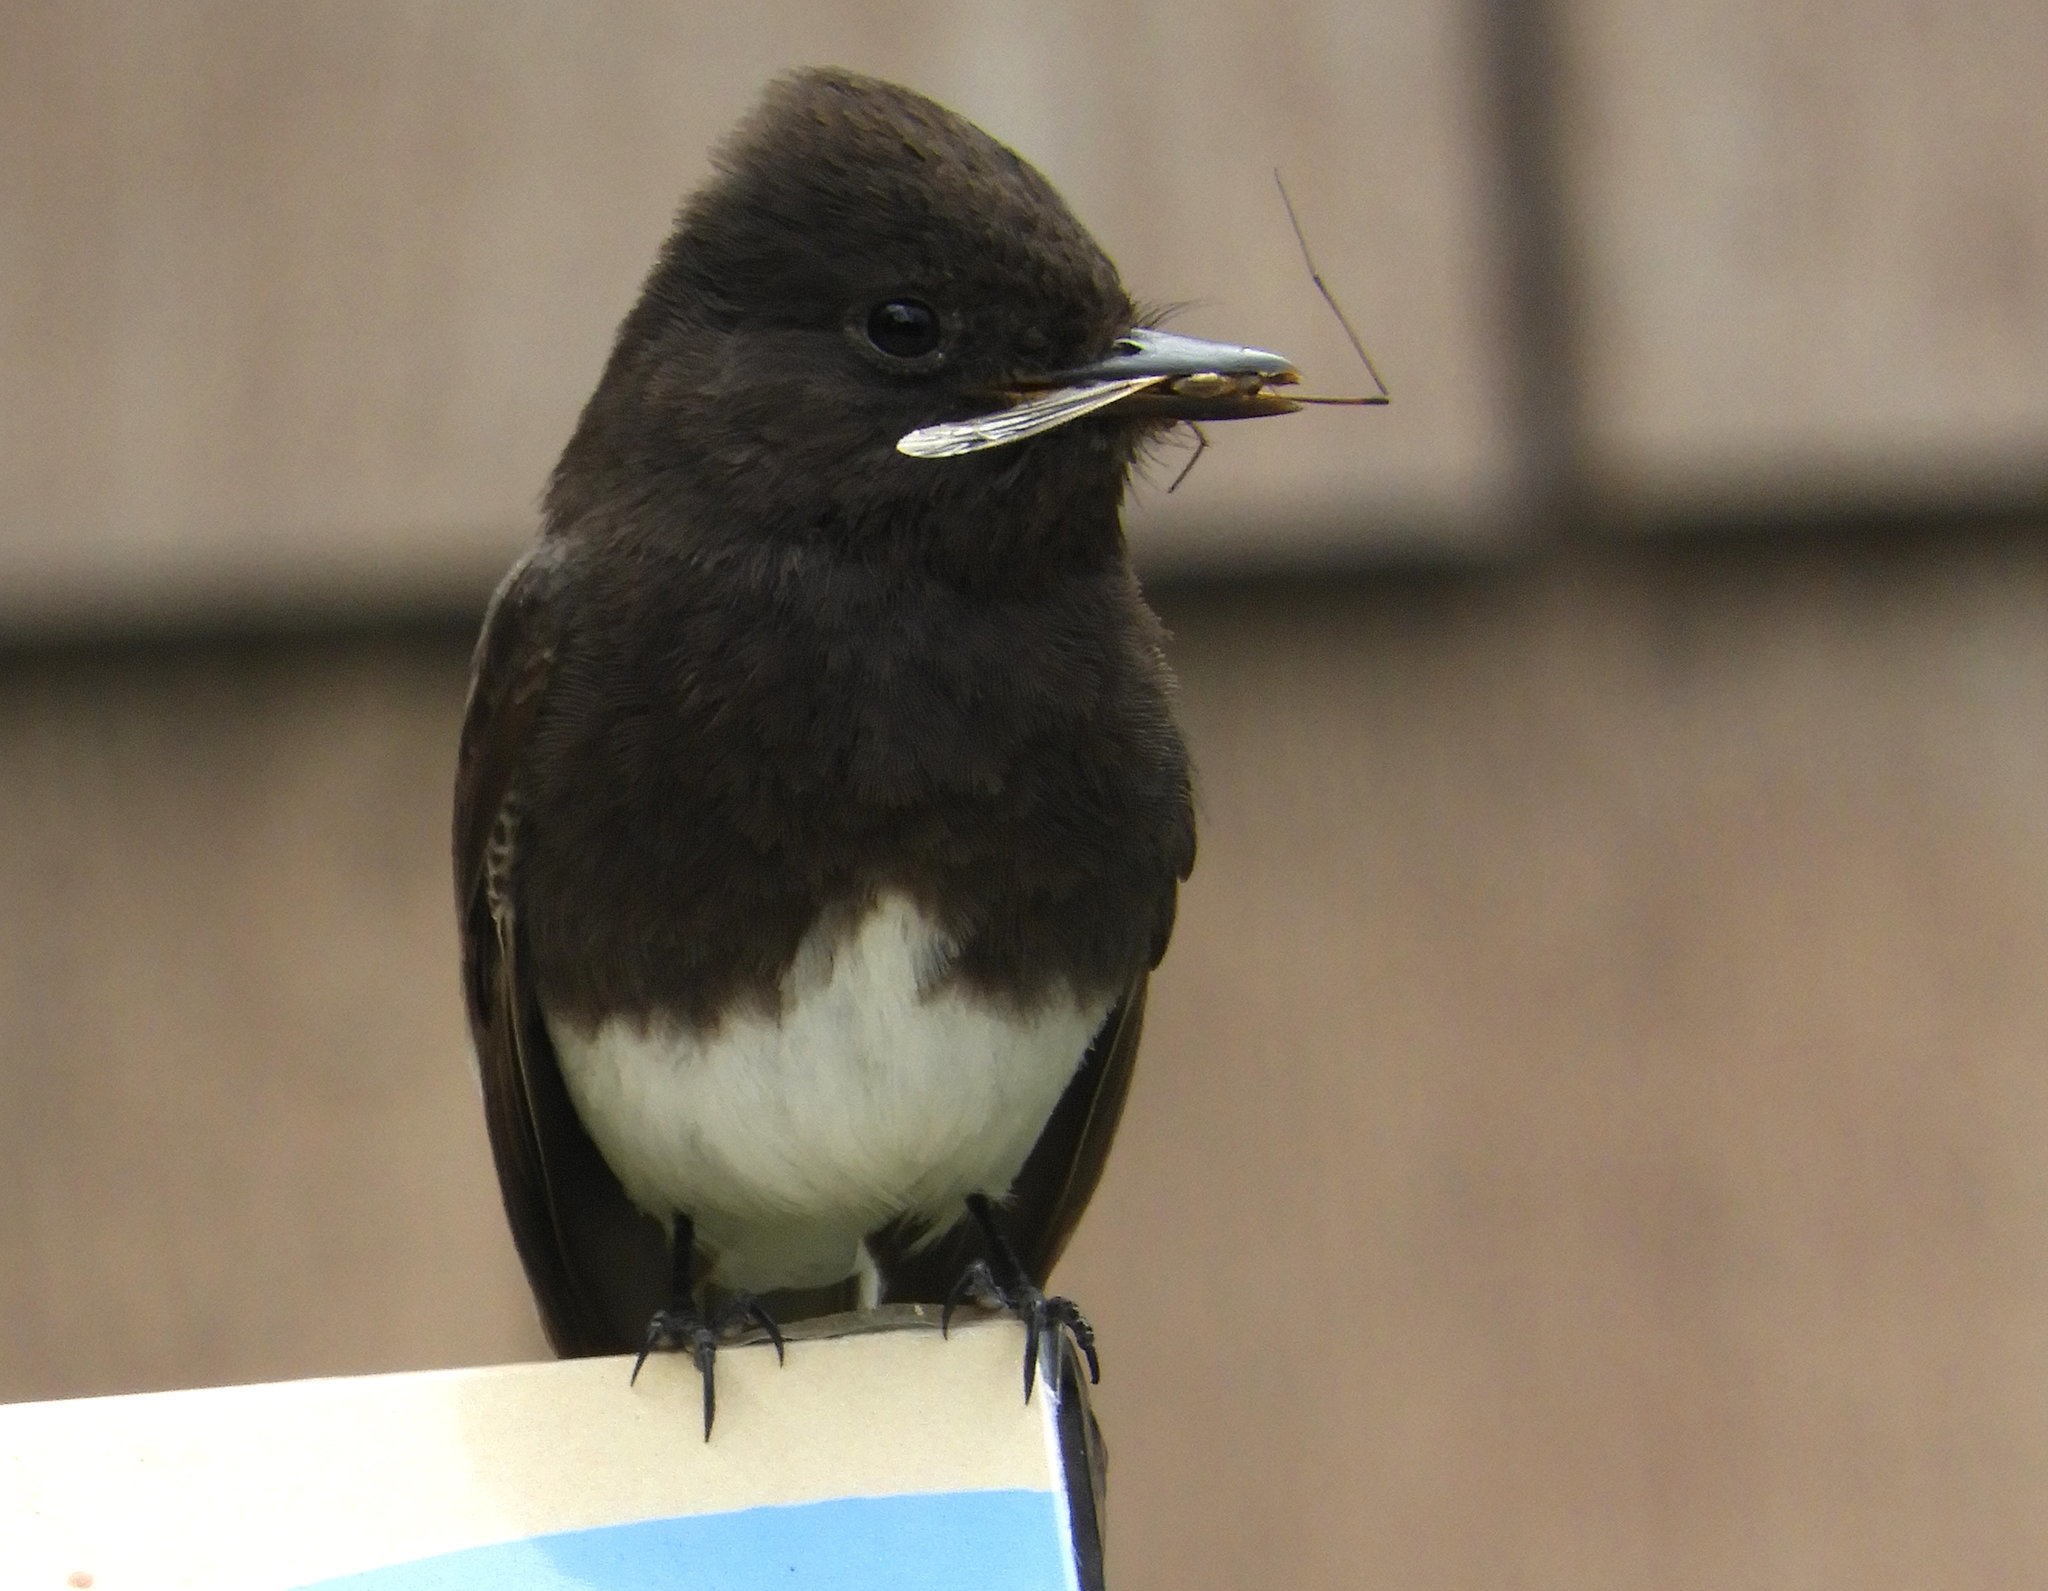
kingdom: Animalia
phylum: Chordata
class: Aves
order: Passeriformes
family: Tyrannidae
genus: Sayornis
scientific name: Sayornis nigricans
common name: Black phoebe
